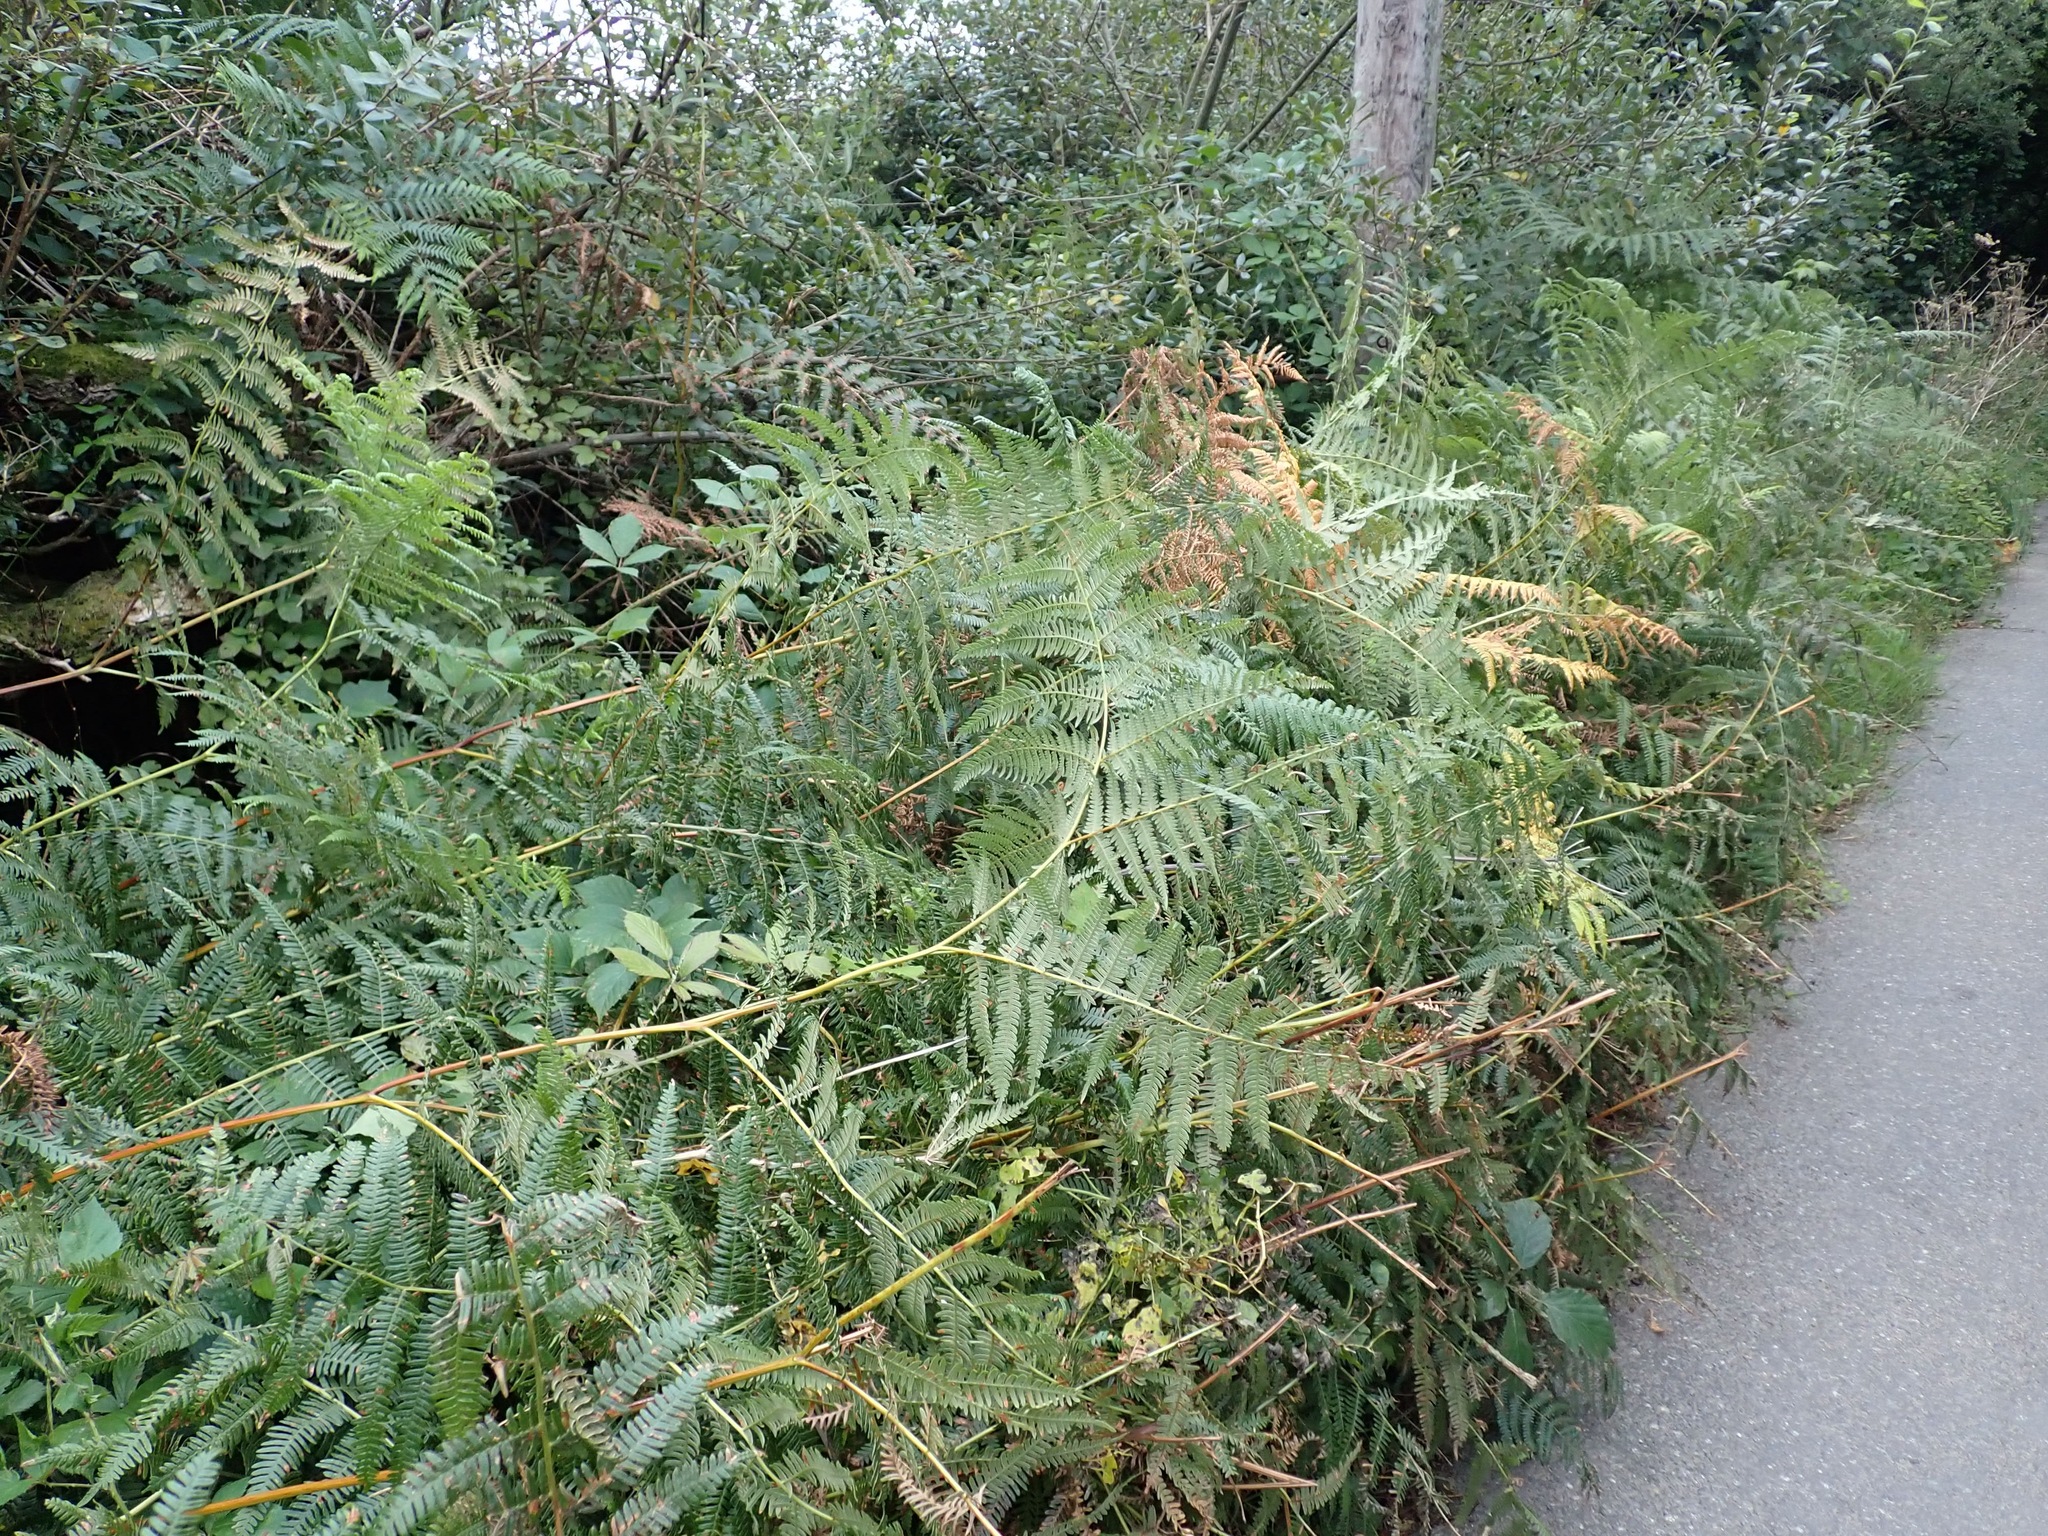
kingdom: Plantae
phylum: Tracheophyta
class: Polypodiopsida
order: Polypodiales
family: Dennstaedtiaceae
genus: Pteridium
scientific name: Pteridium aquilinum
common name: Bracken
